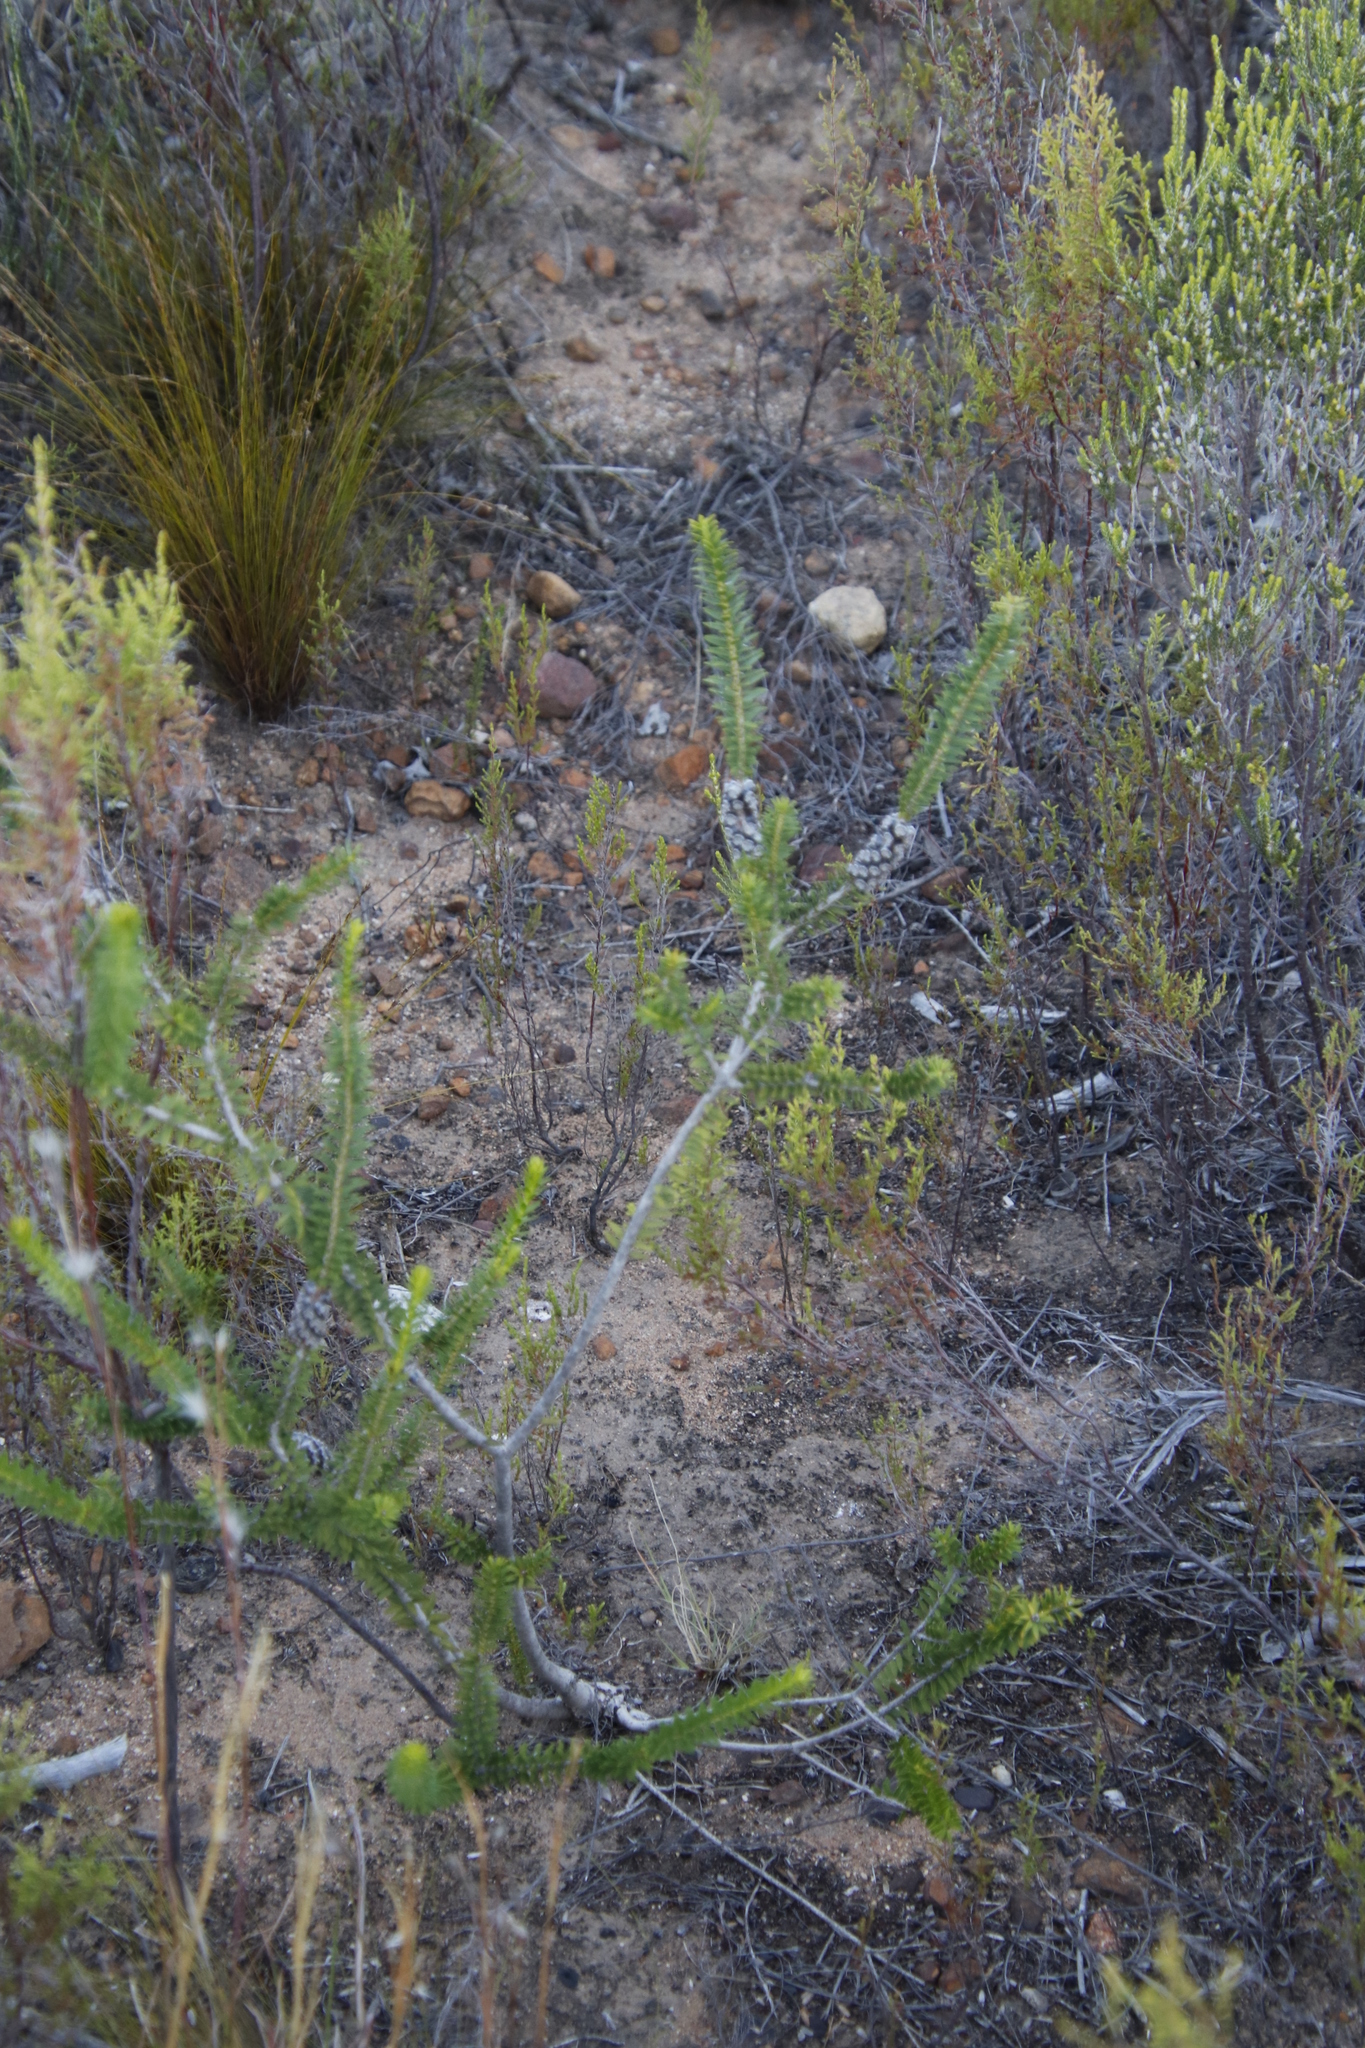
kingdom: Plantae
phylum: Tracheophyta
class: Magnoliopsida
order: Myrtales
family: Myrtaceae
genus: Melaleuca
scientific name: Melaleuca diosmifolia
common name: Green honey myrtle
